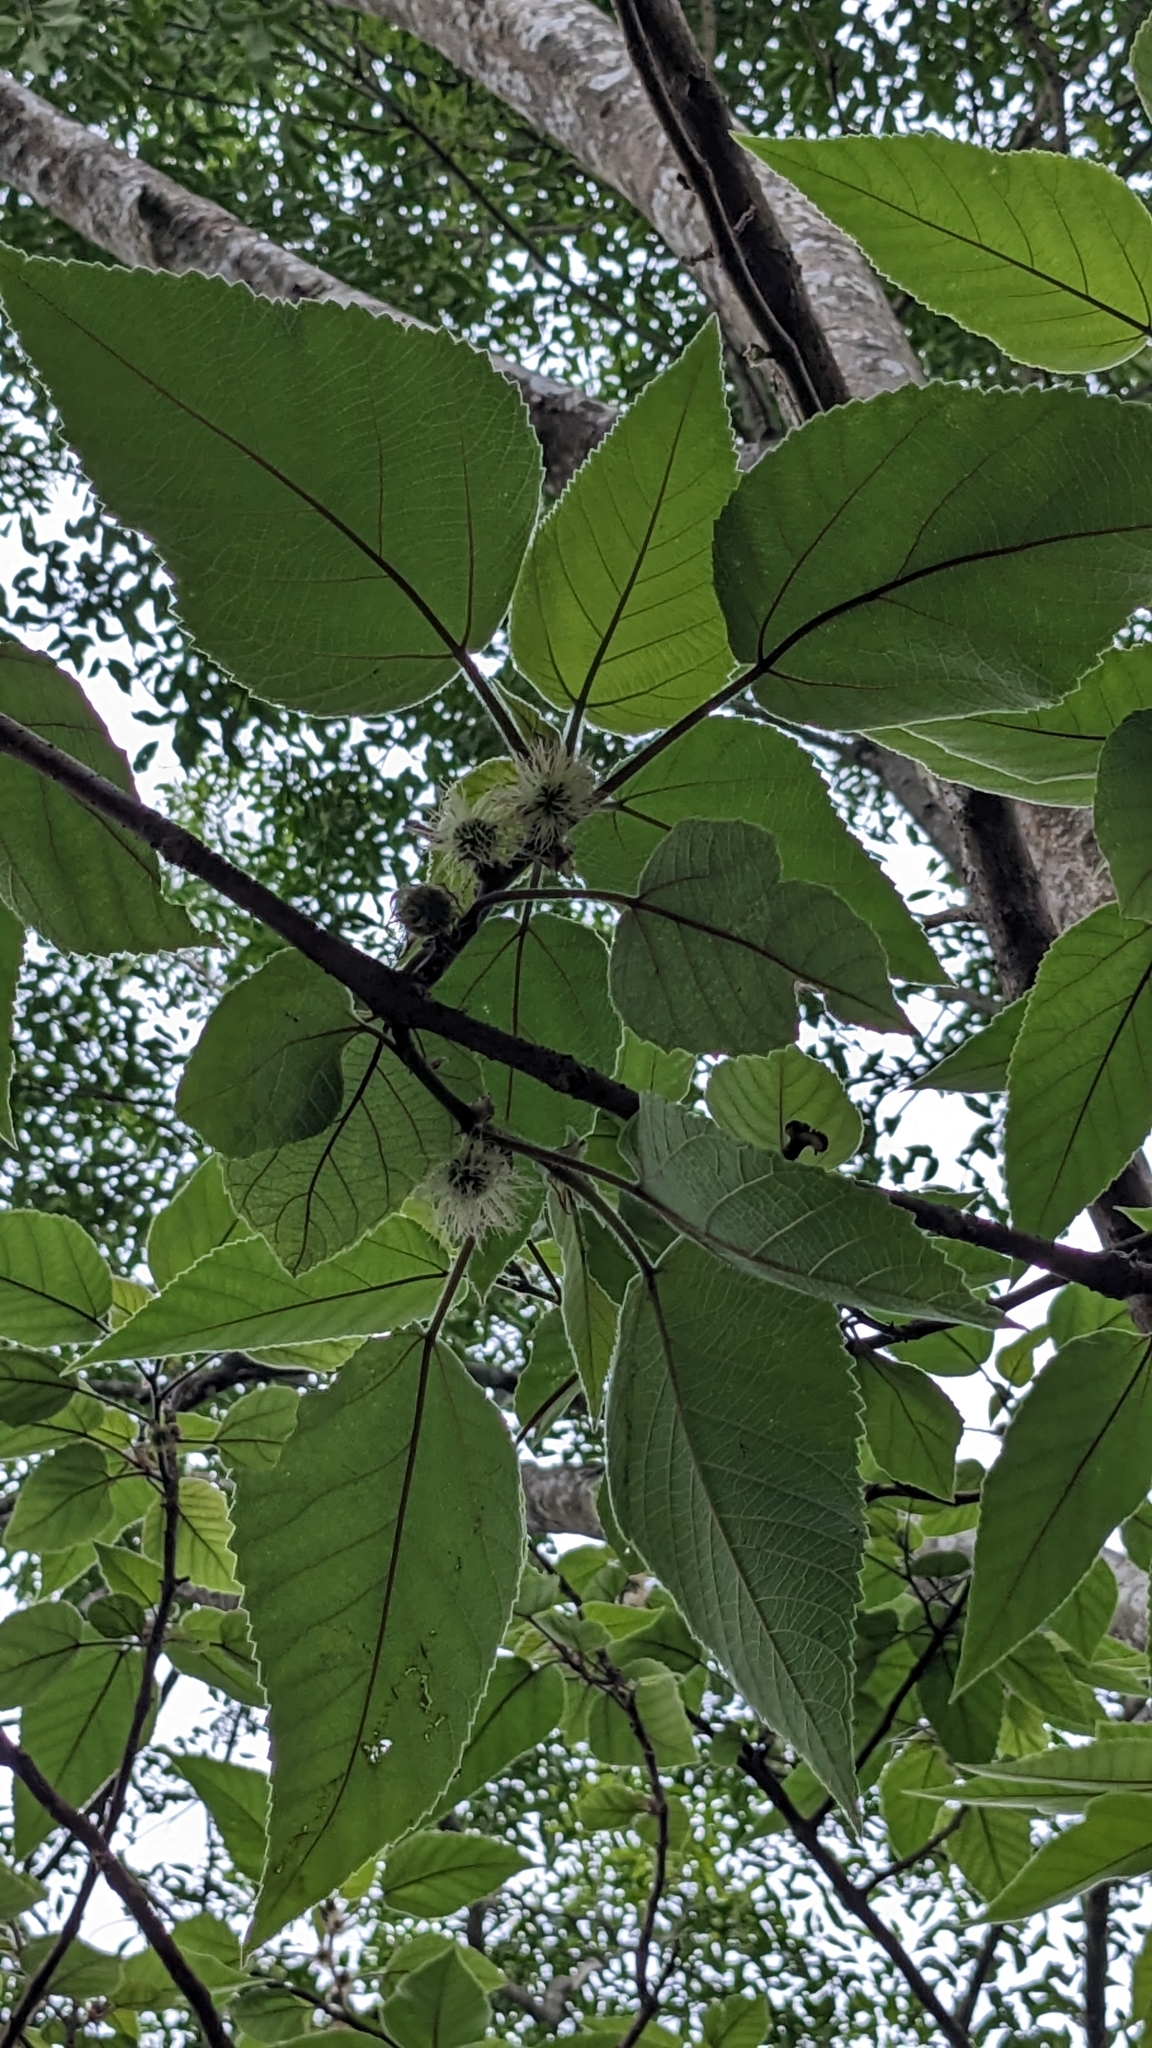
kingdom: Plantae
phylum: Tracheophyta
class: Magnoliopsida
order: Rosales
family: Moraceae
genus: Broussonetia
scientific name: Broussonetia papyrifera
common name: Paper mulberry
